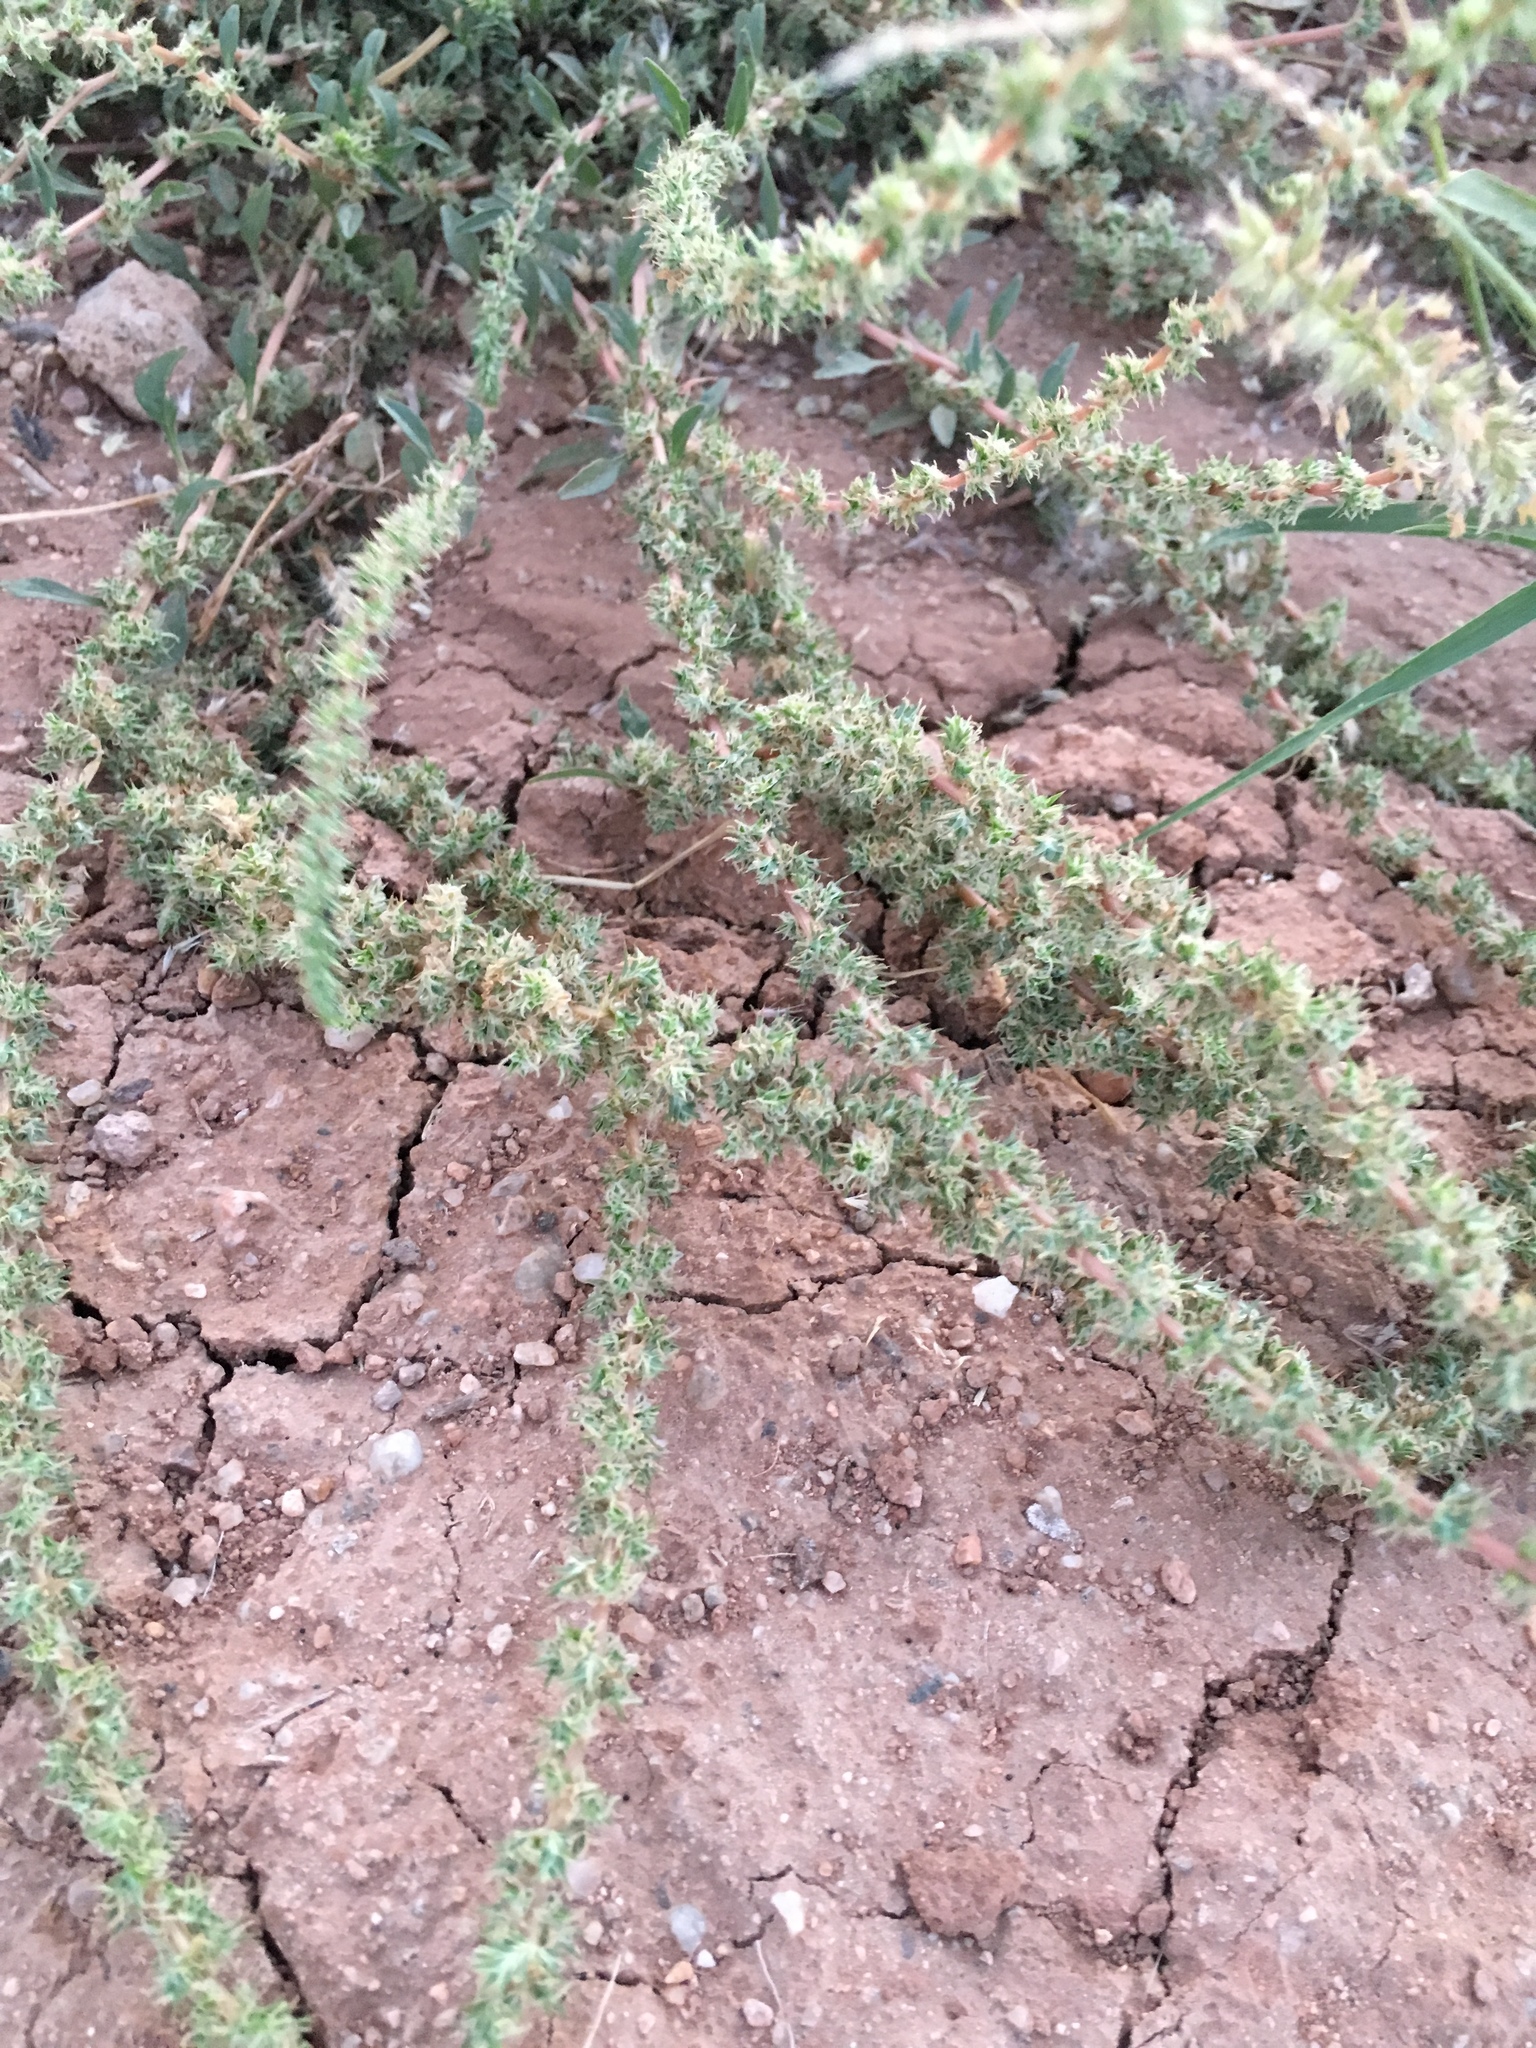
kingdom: Plantae
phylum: Tracheophyta
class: Magnoliopsida
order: Caryophyllales
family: Amaranthaceae
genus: Amaranthus
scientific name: Amaranthus palmeri
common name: Dioecious amaranth
